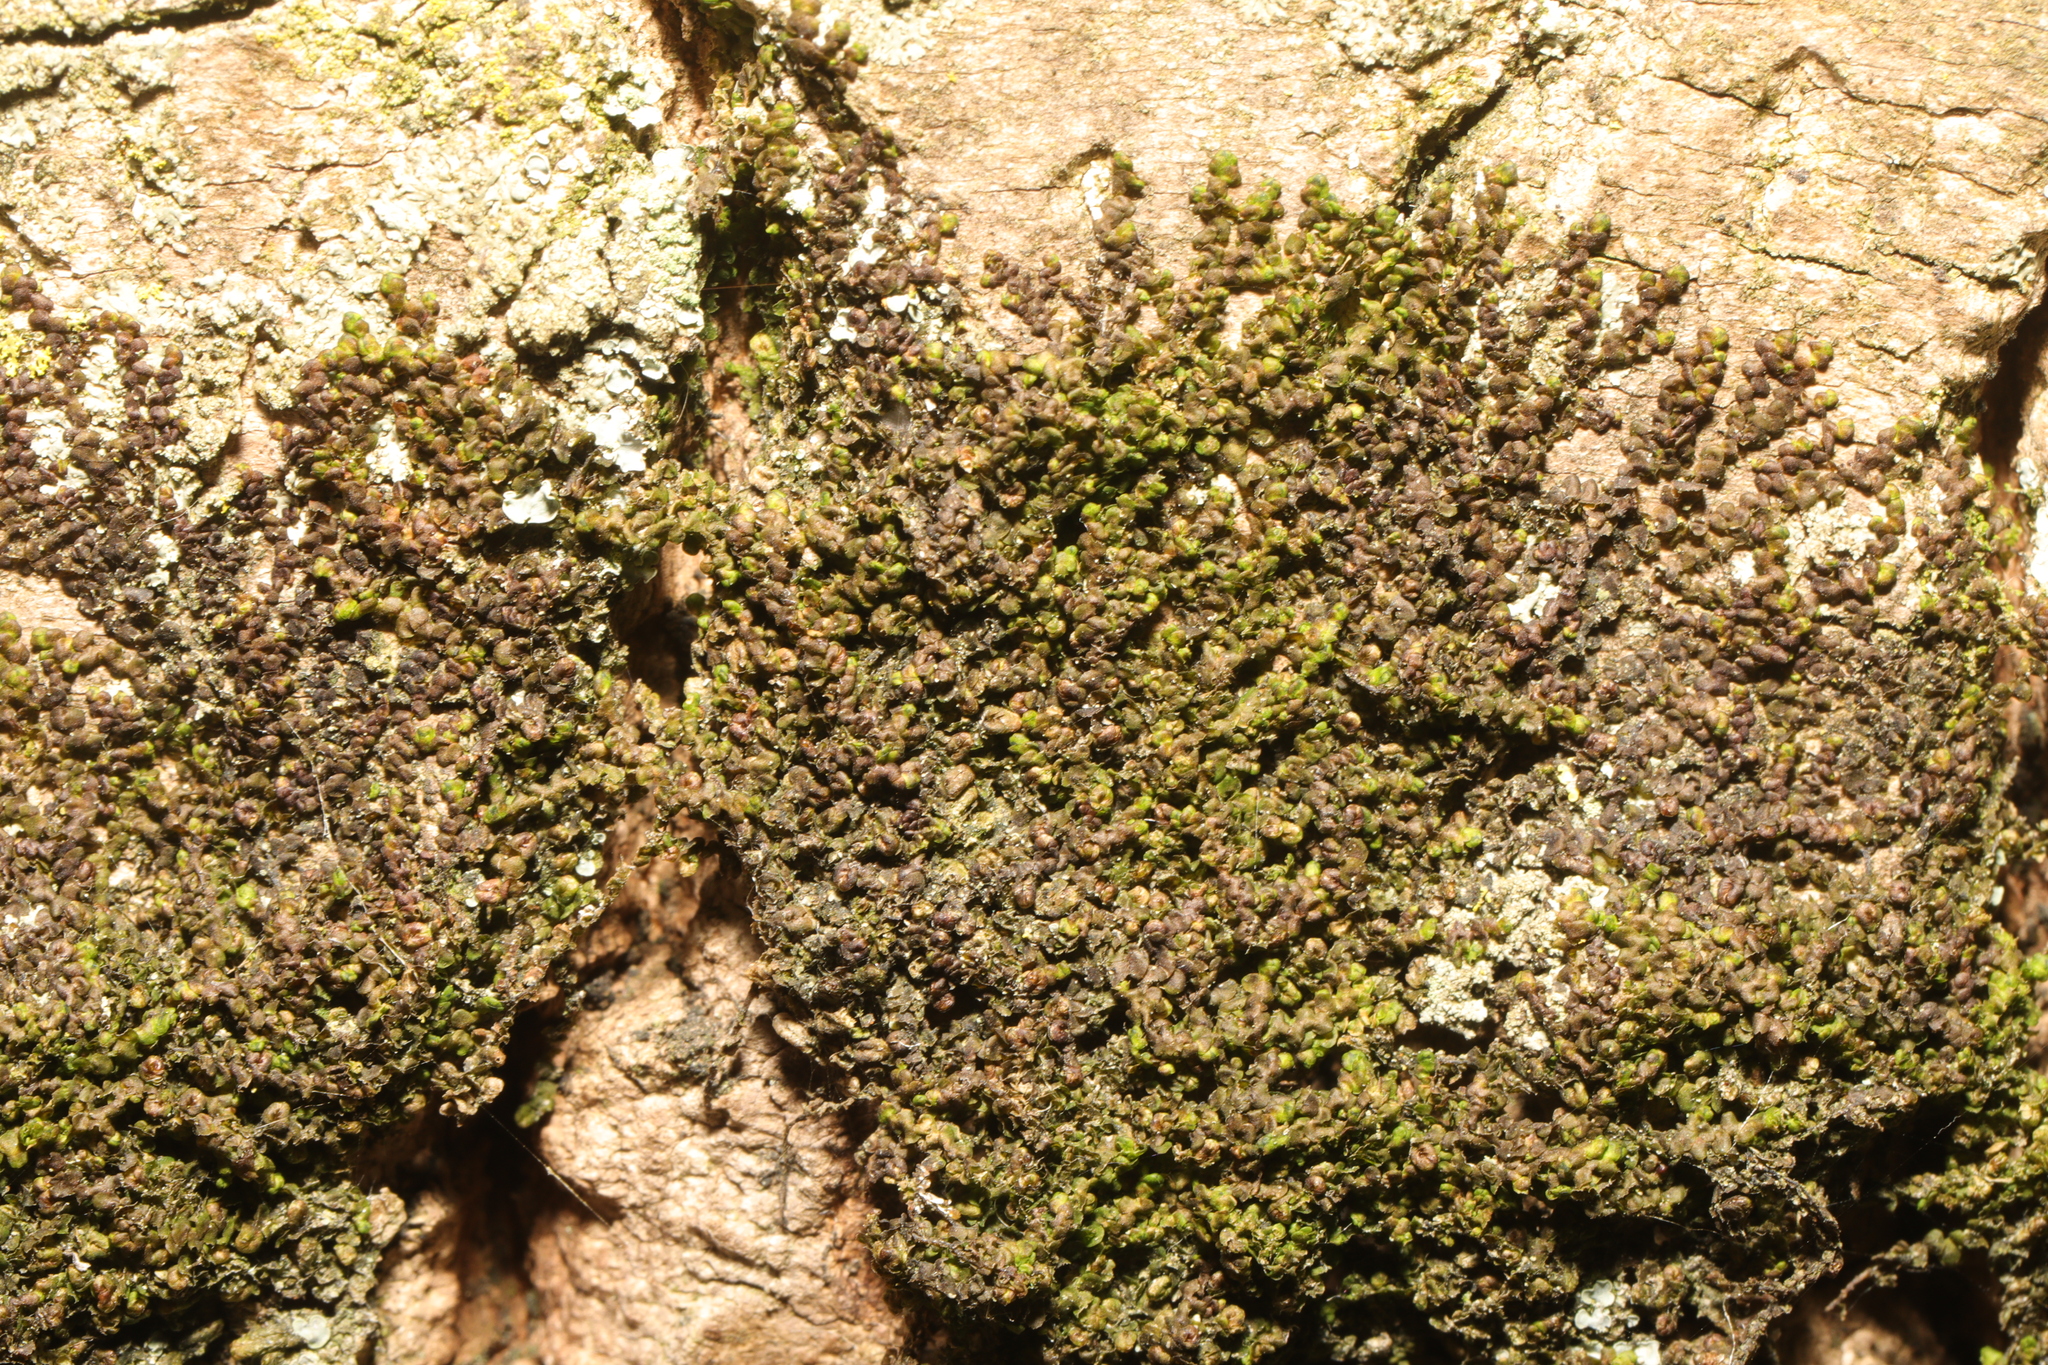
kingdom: Plantae
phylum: Marchantiophyta
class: Jungermanniopsida
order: Porellales
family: Frullaniaceae
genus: Frullania
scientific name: Frullania dilatata
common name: Dilated scalewort
